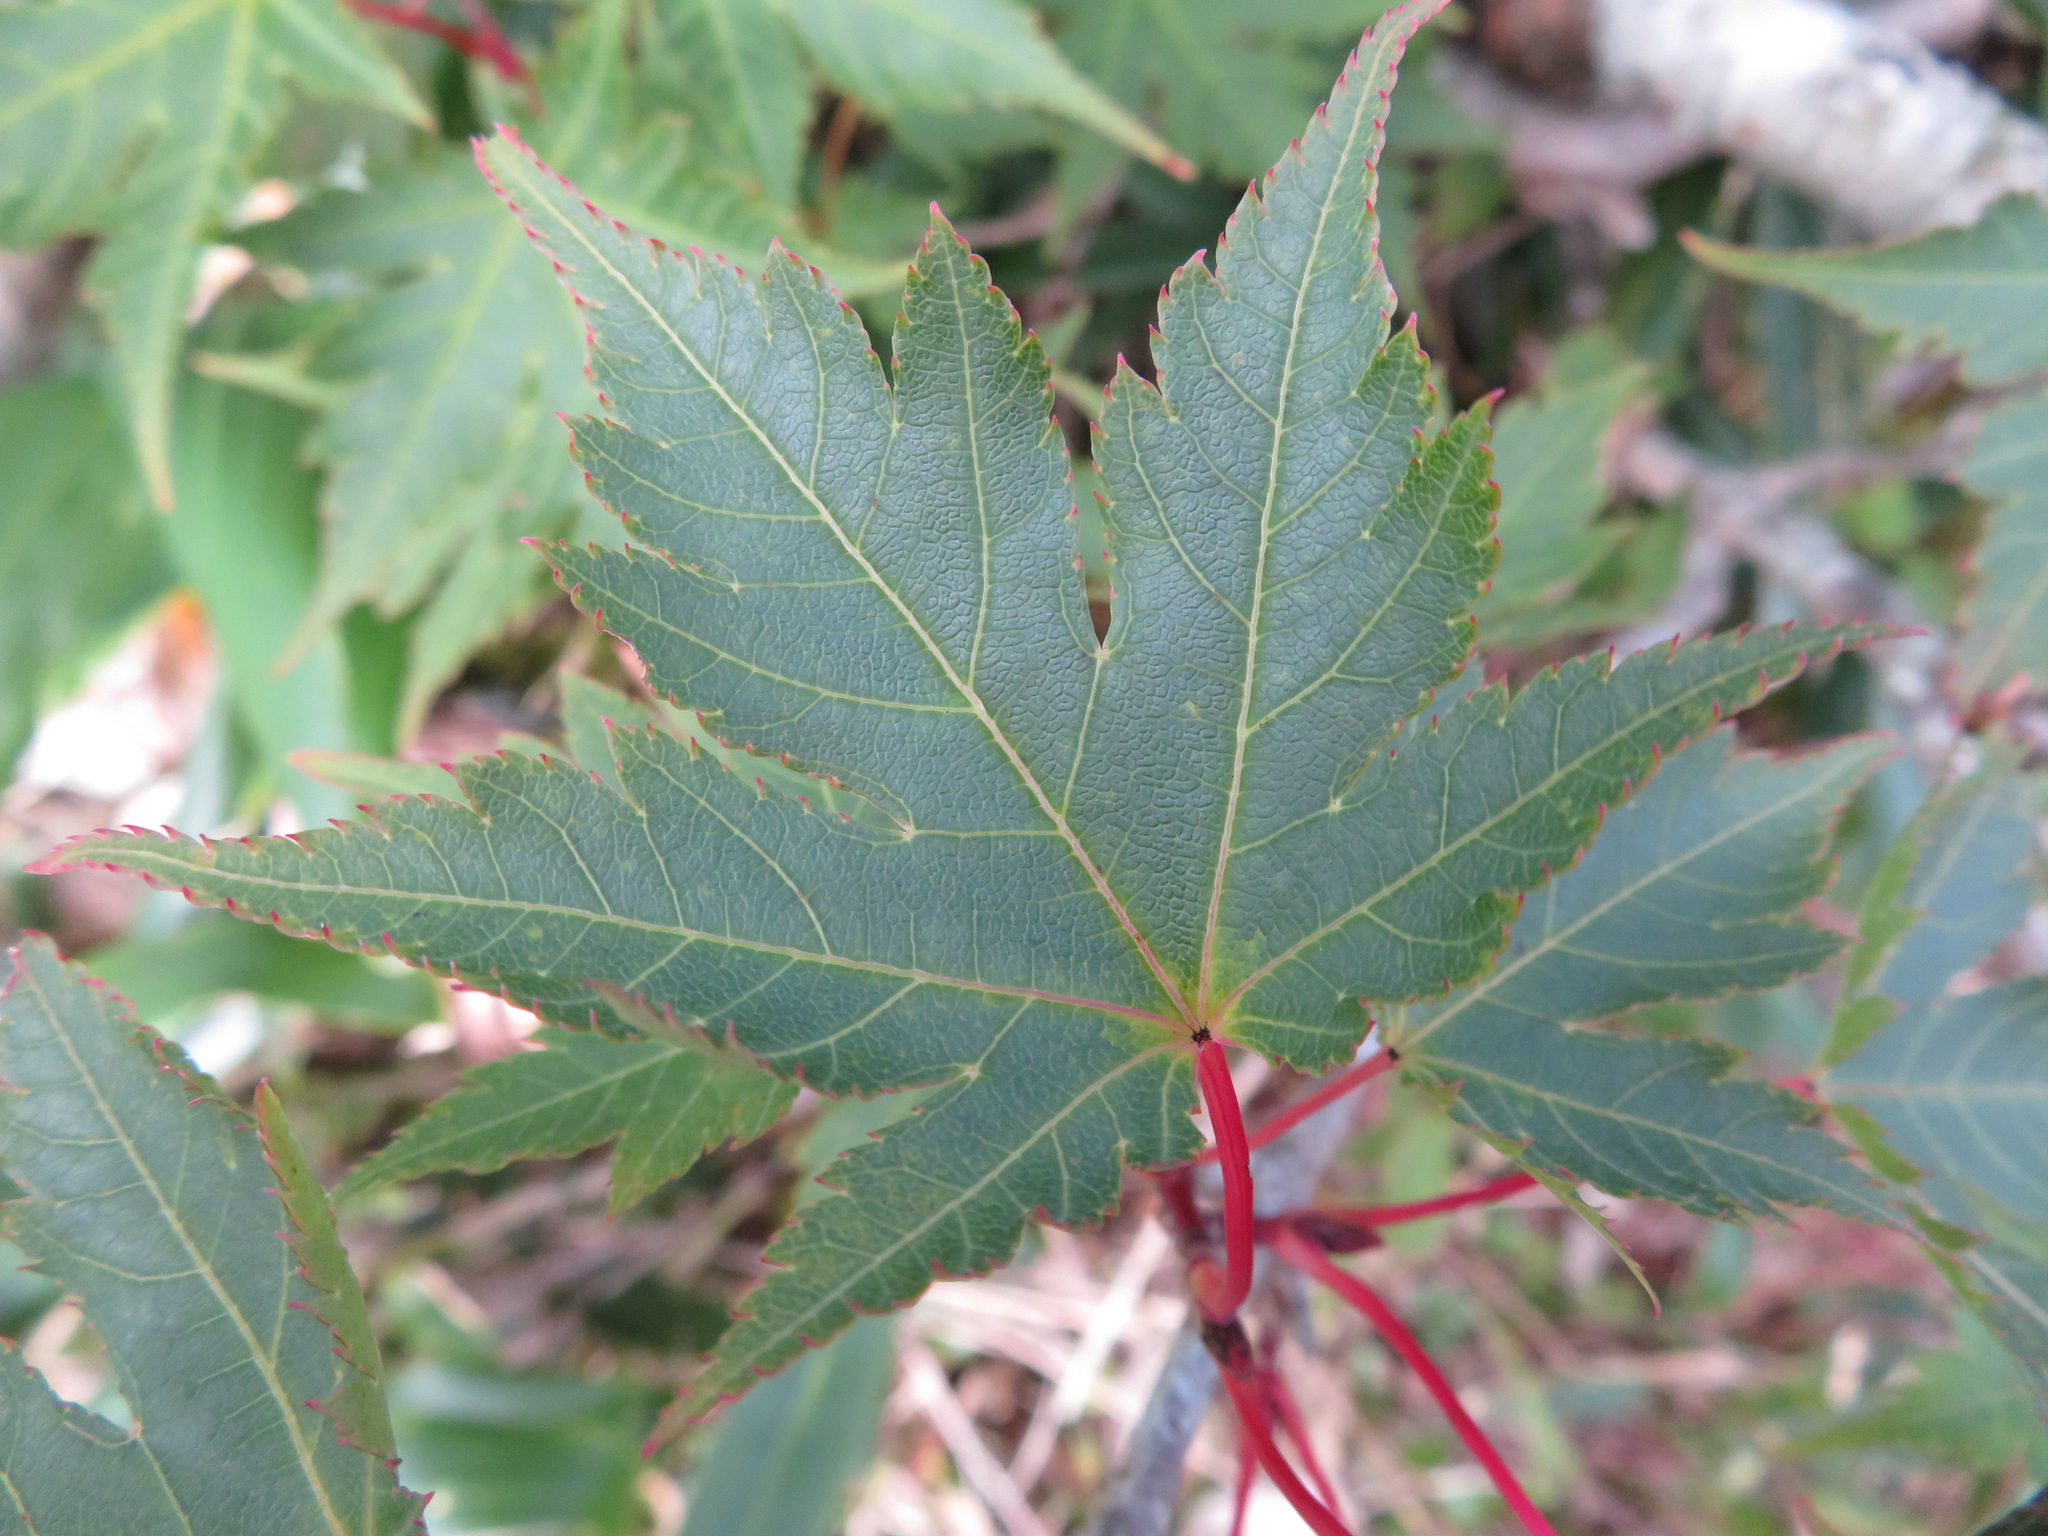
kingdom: Plantae
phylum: Tracheophyta
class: Magnoliopsida
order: Sapindales
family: Sapindaceae
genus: Acer
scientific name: Acer tschonoskii
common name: Tschonoski’s maple
